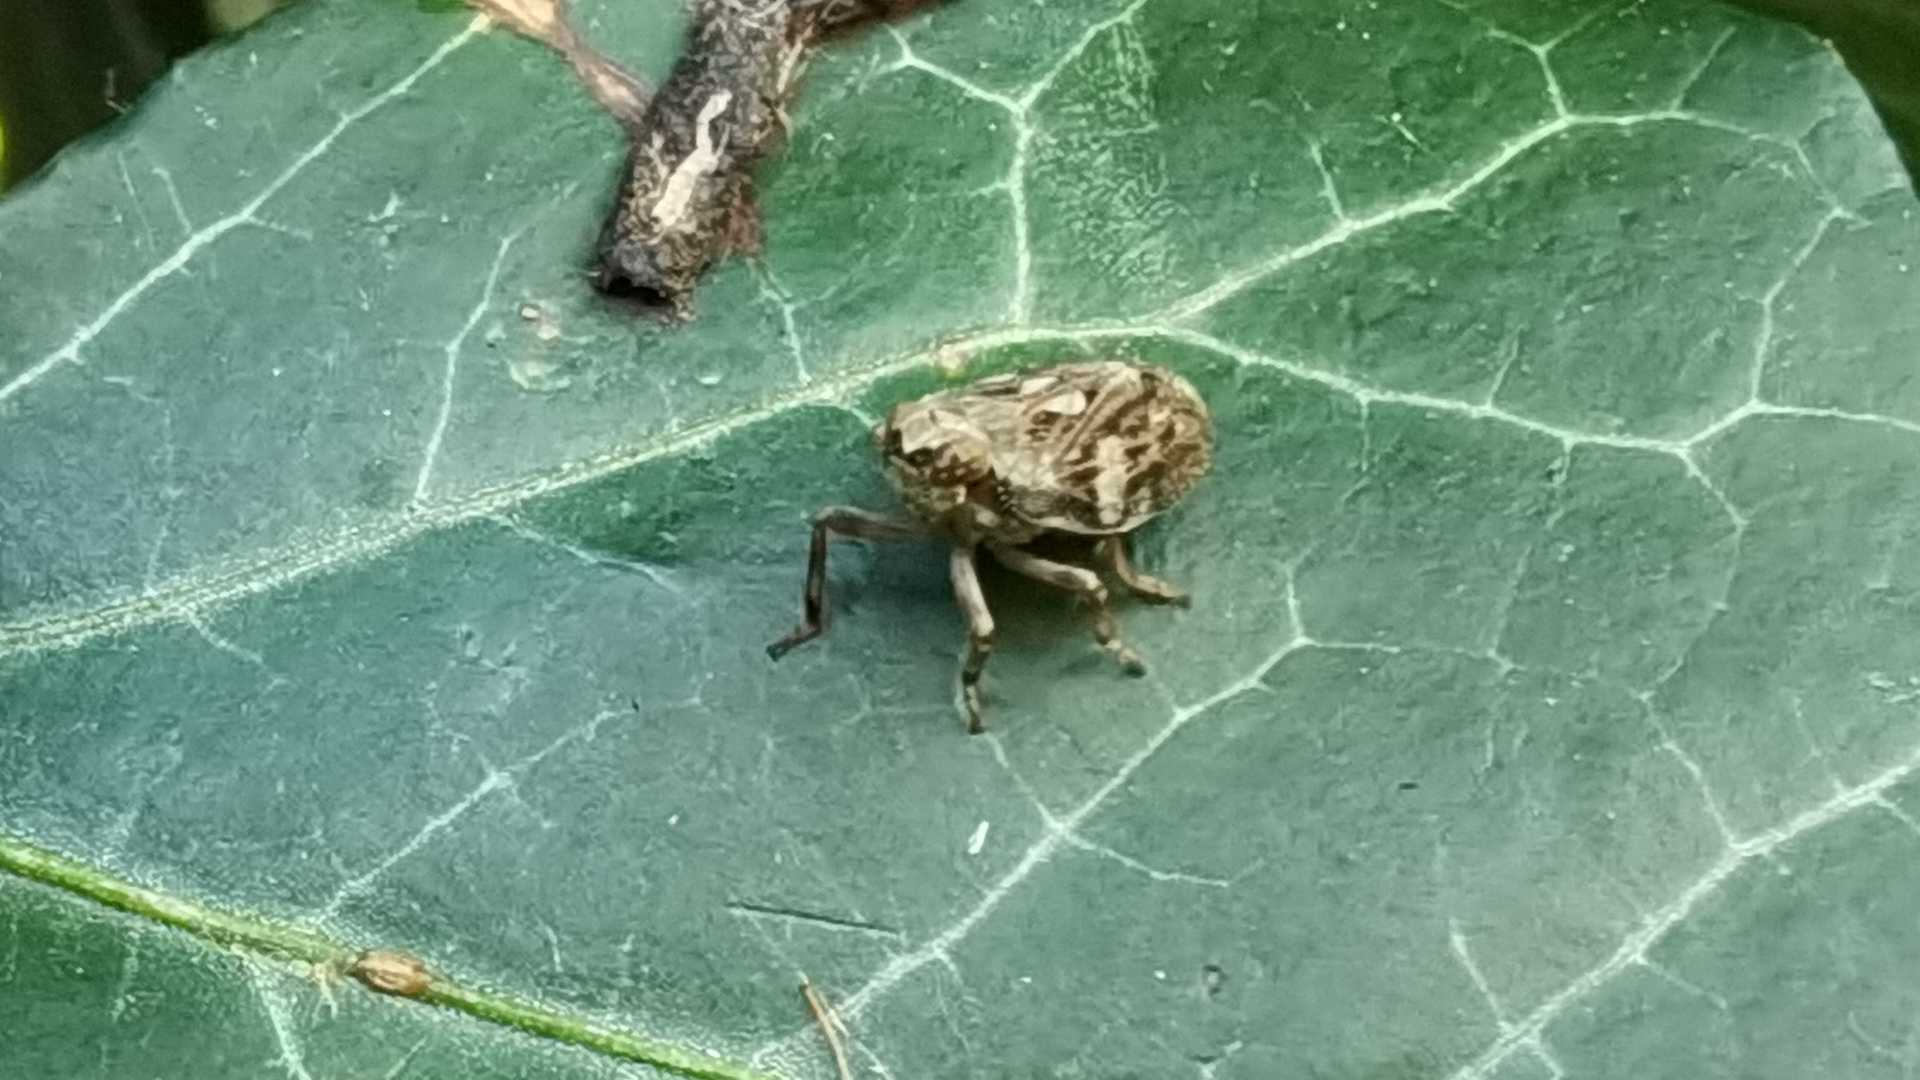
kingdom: Animalia
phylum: Arthropoda
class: Insecta
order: Hemiptera
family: Issidae
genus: Issus
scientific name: Issus coleoptratus
